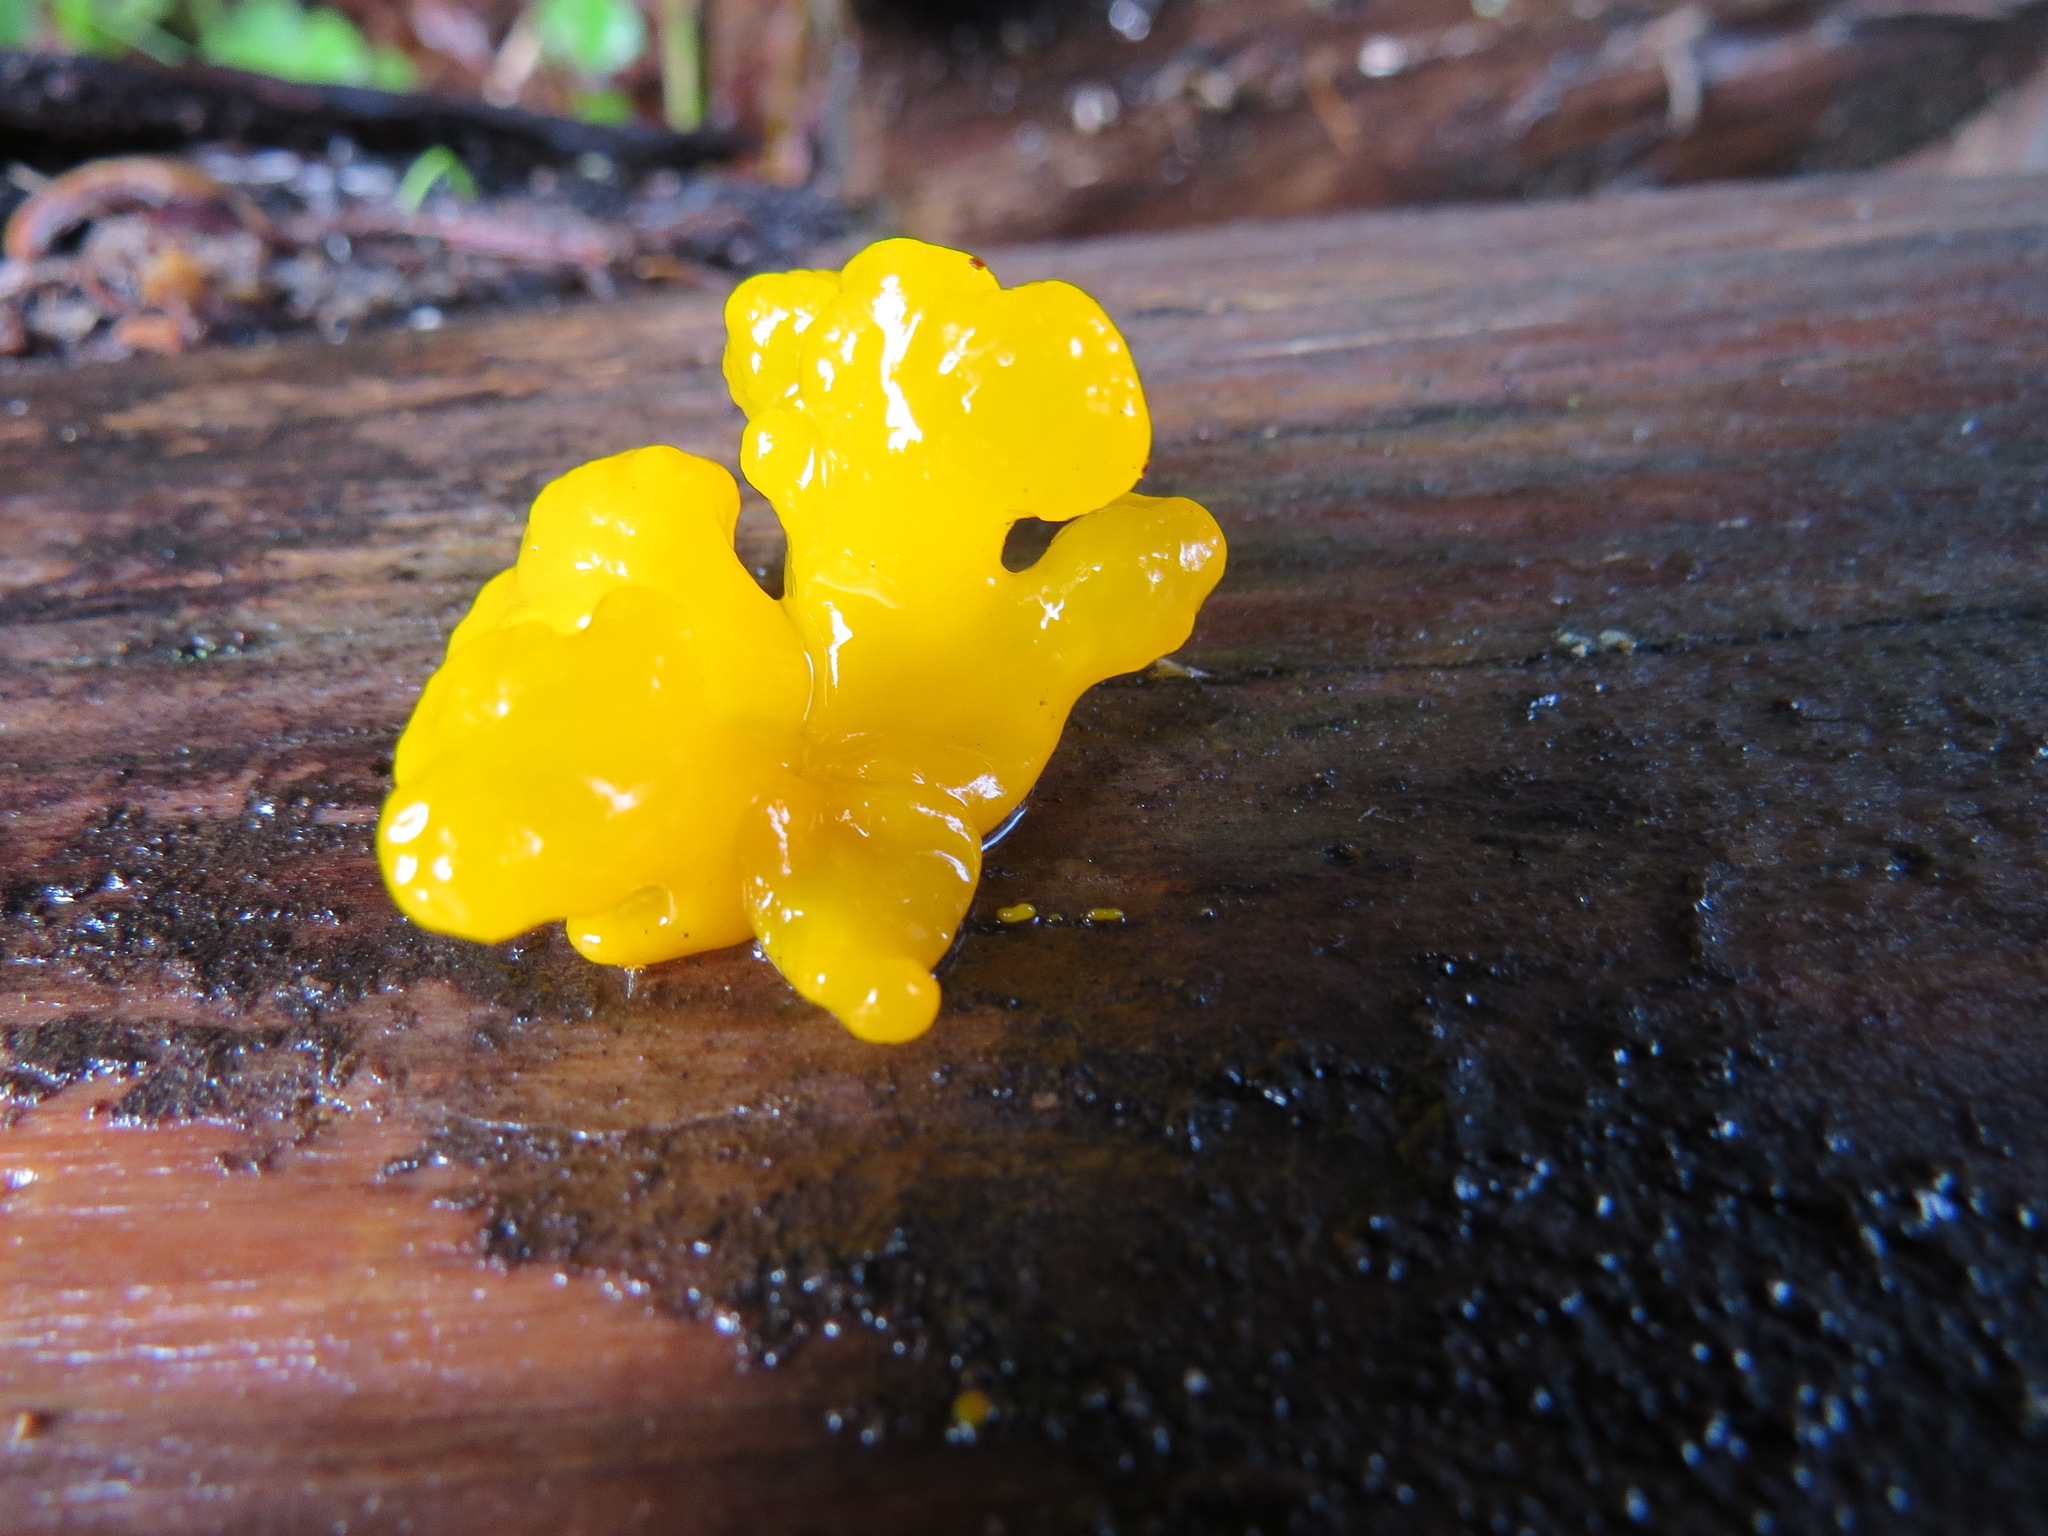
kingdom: Fungi
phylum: Basidiomycota
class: Dacrymycetes
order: Dacrymycetales
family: Dacrymycetaceae
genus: Dacrymyces
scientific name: Dacrymyces chrysospermus
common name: Orange jelly spot
